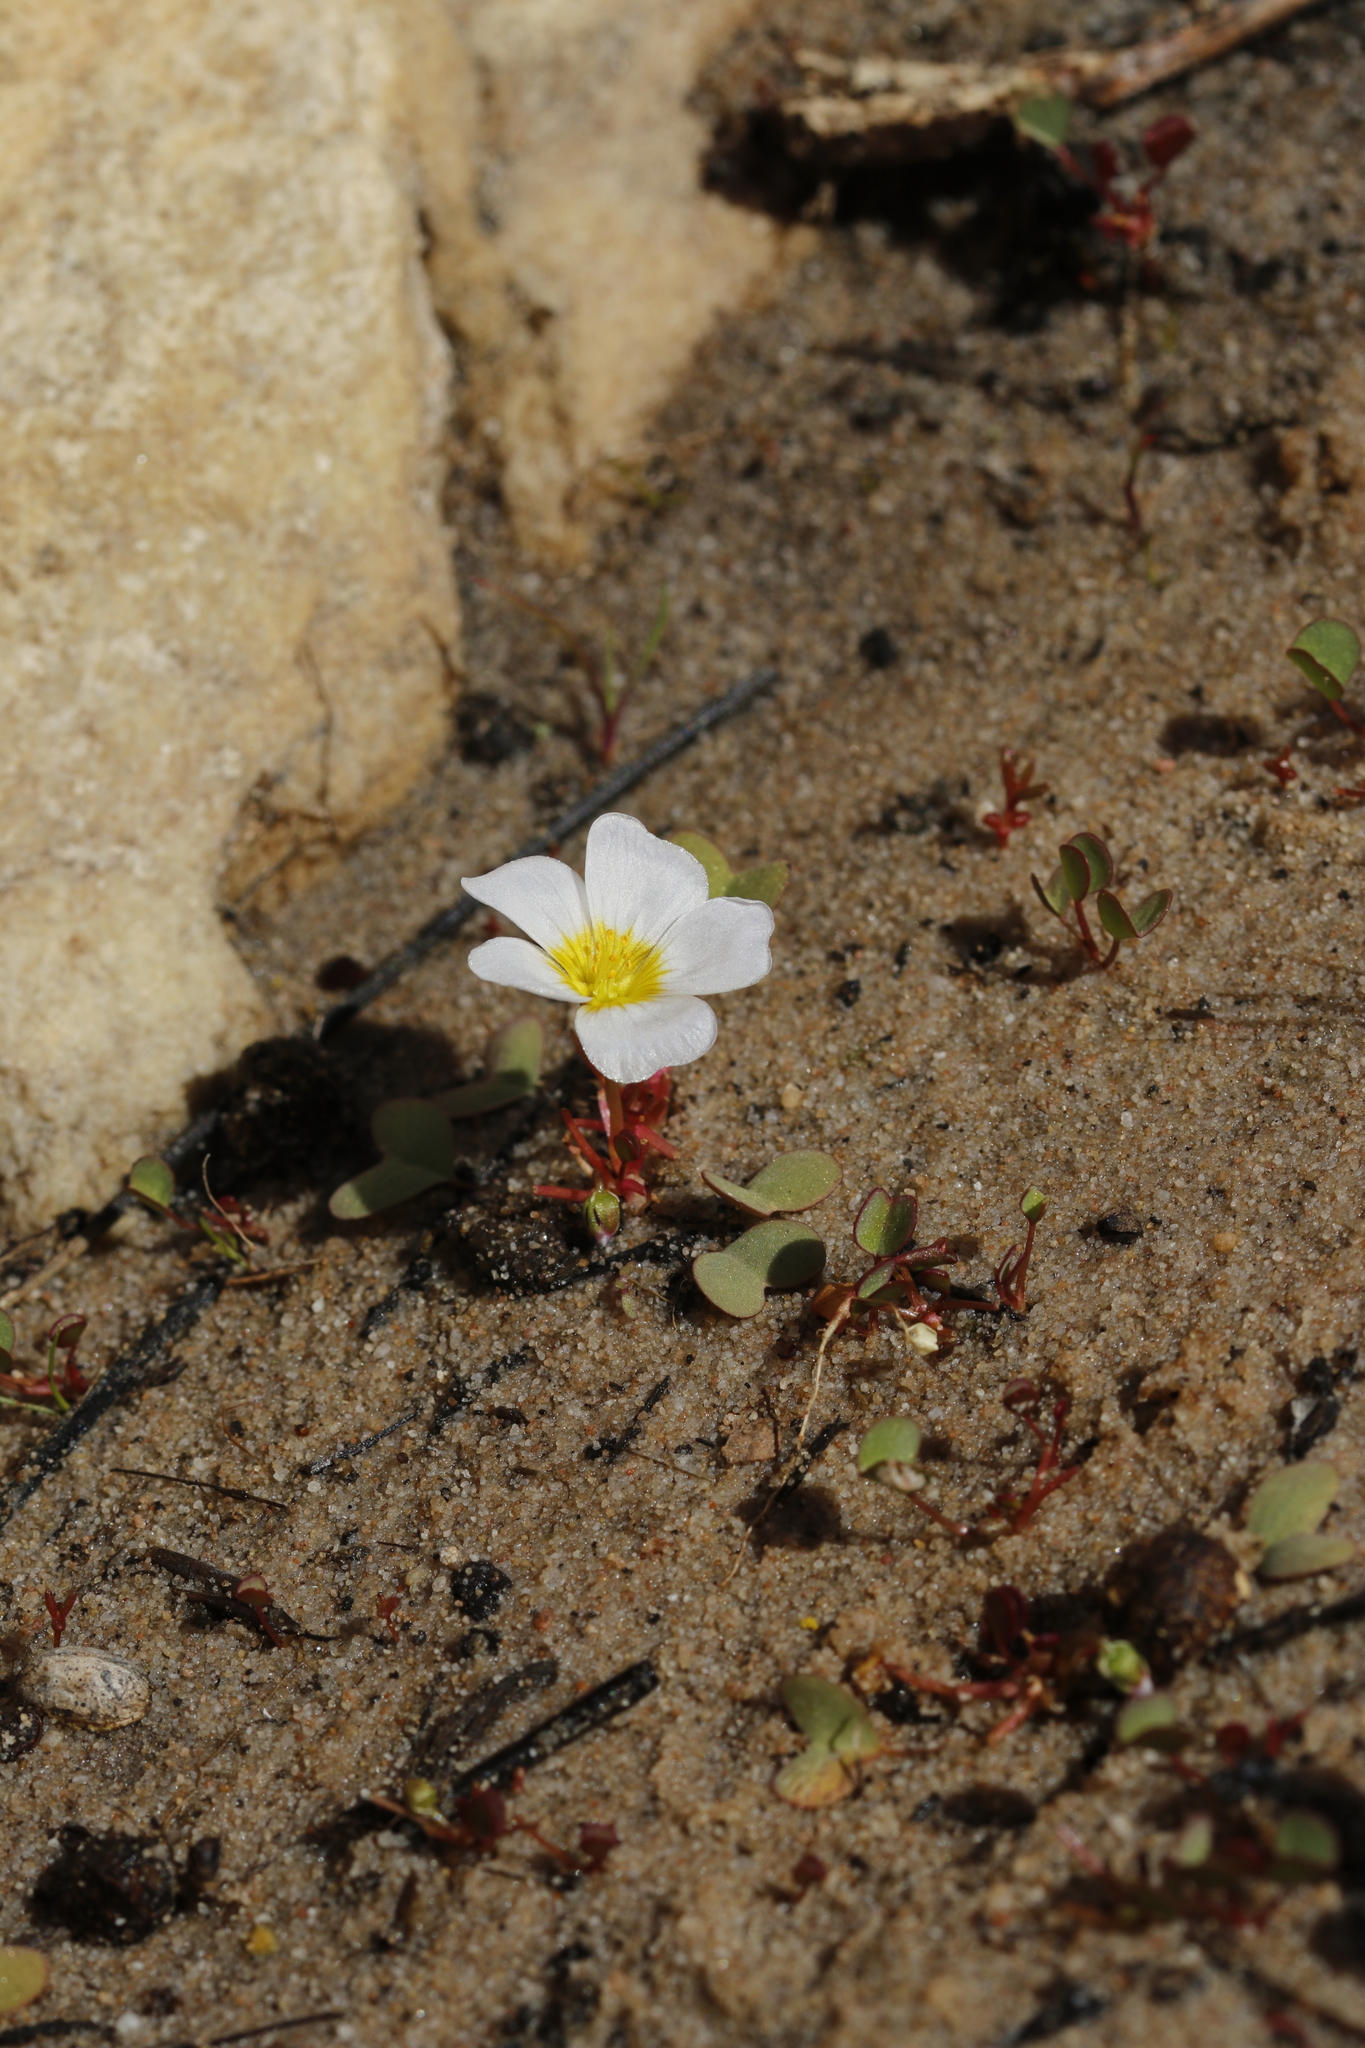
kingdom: Plantae
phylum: Tracheophyta
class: Magnoliopsida
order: Oxalidales
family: Oxalidaceae
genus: Oxalis
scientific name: Oxalis dregei
